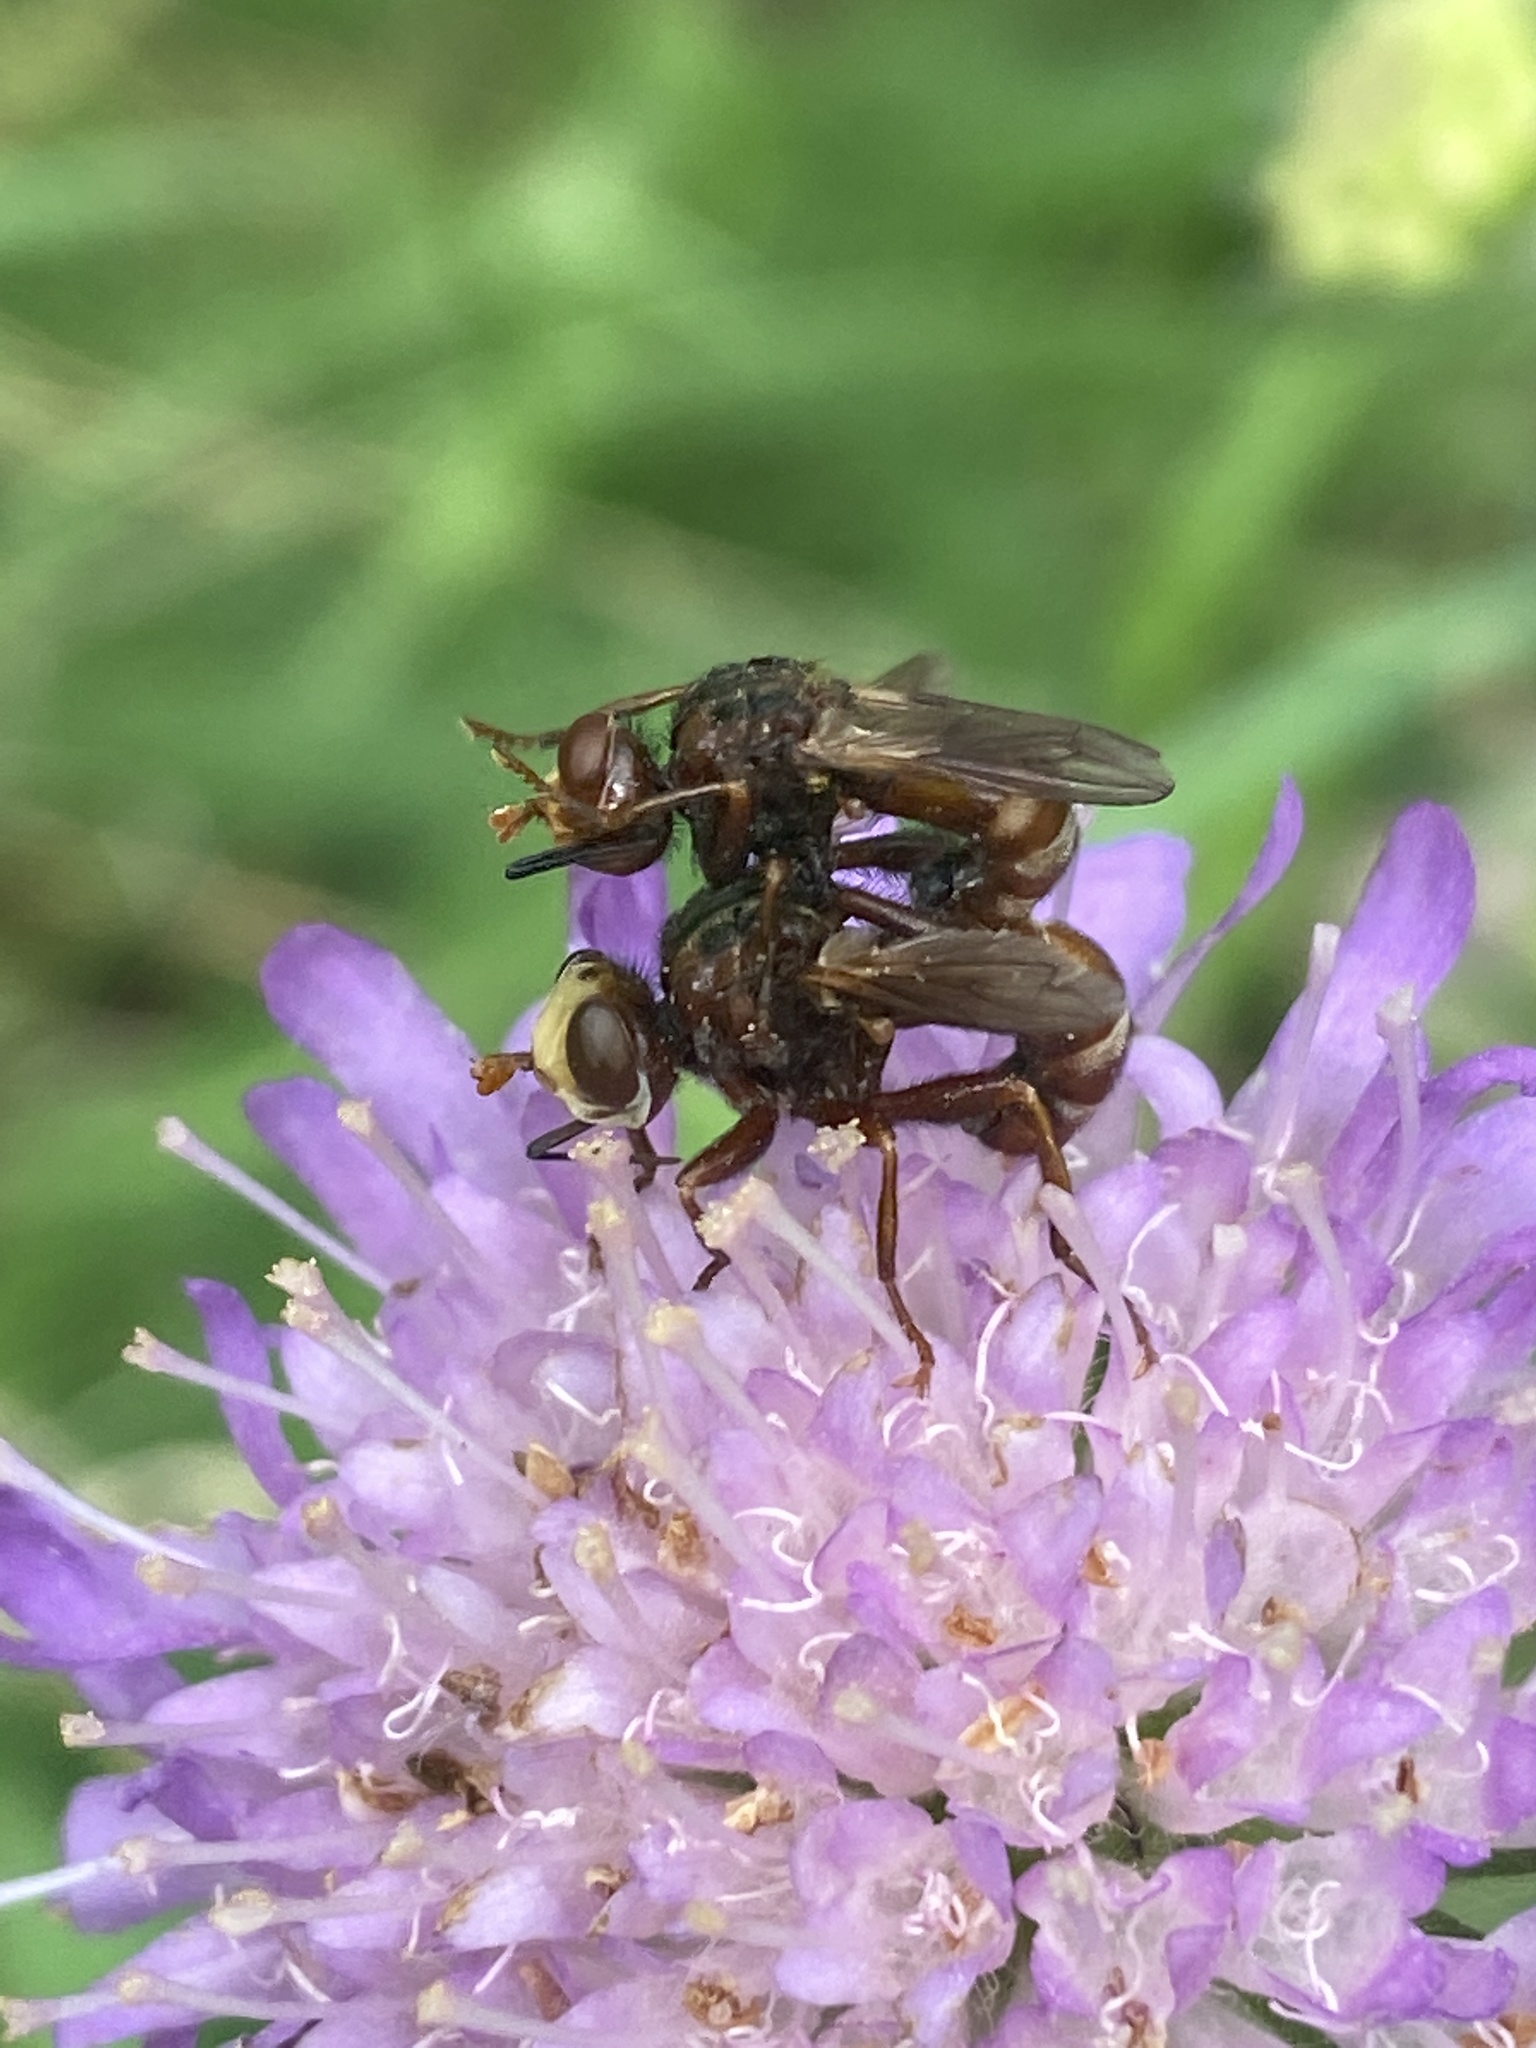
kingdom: Animalia
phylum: Arthropoda
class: Insecta
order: Diptera
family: Conopidae
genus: Sicus
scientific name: Sicus ferrugineus
